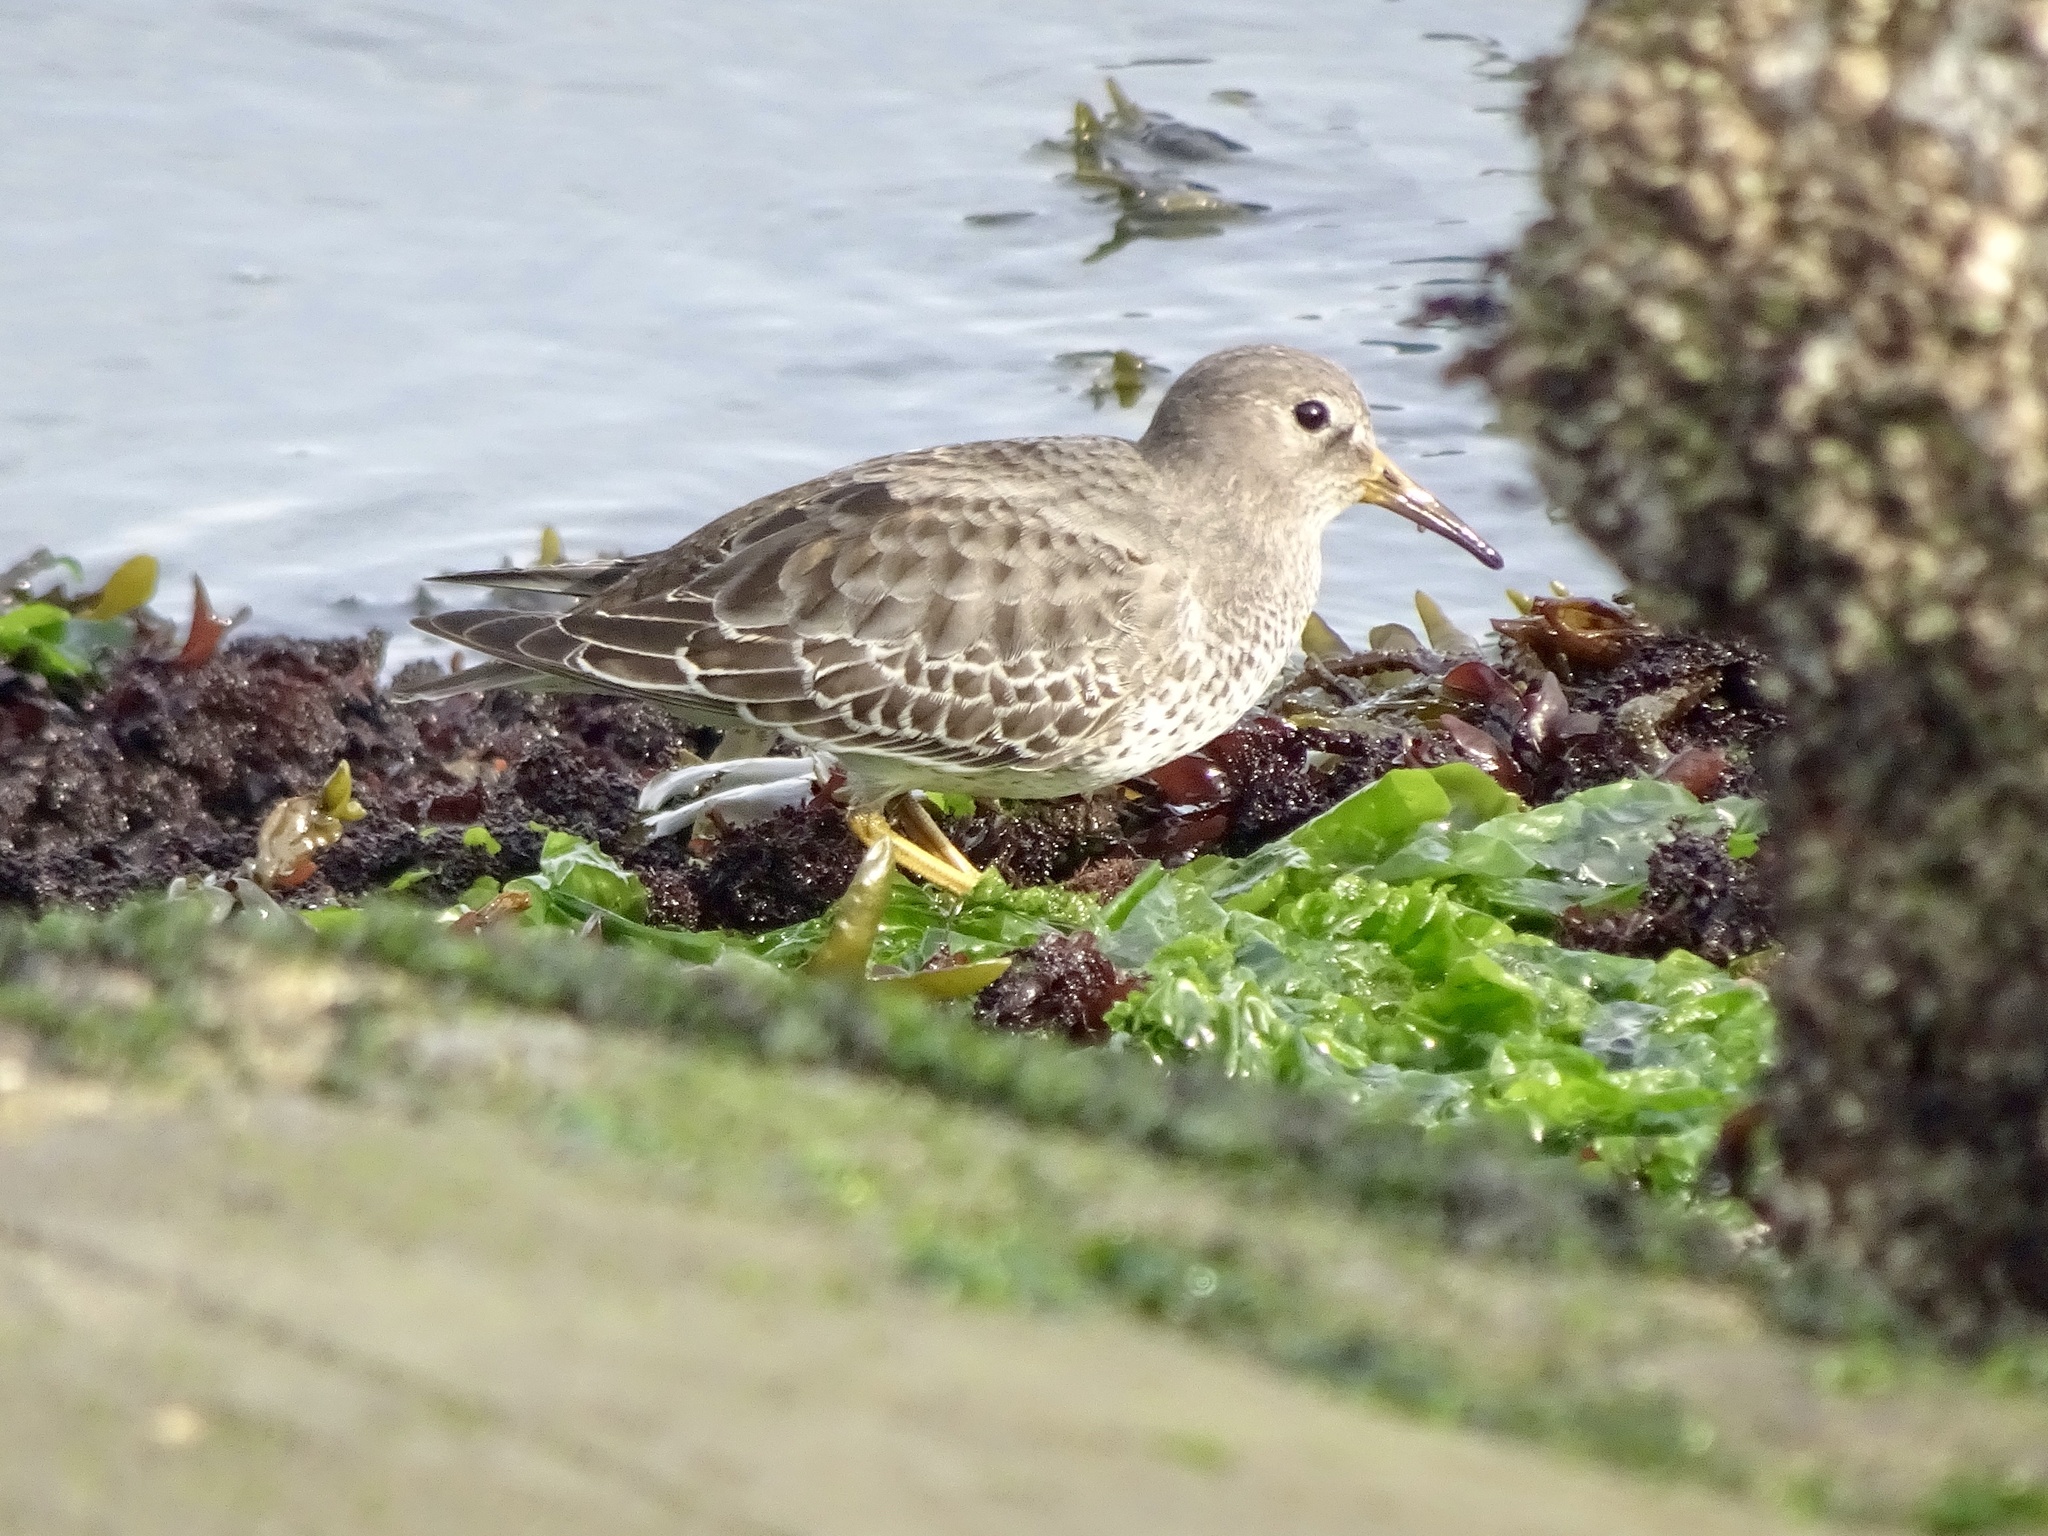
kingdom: Animalia
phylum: Chordata
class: Aves
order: Charadriiformes
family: Scolopacidae
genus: Calidris
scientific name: Calidris ptilocnemis
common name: Rock sandpiper
